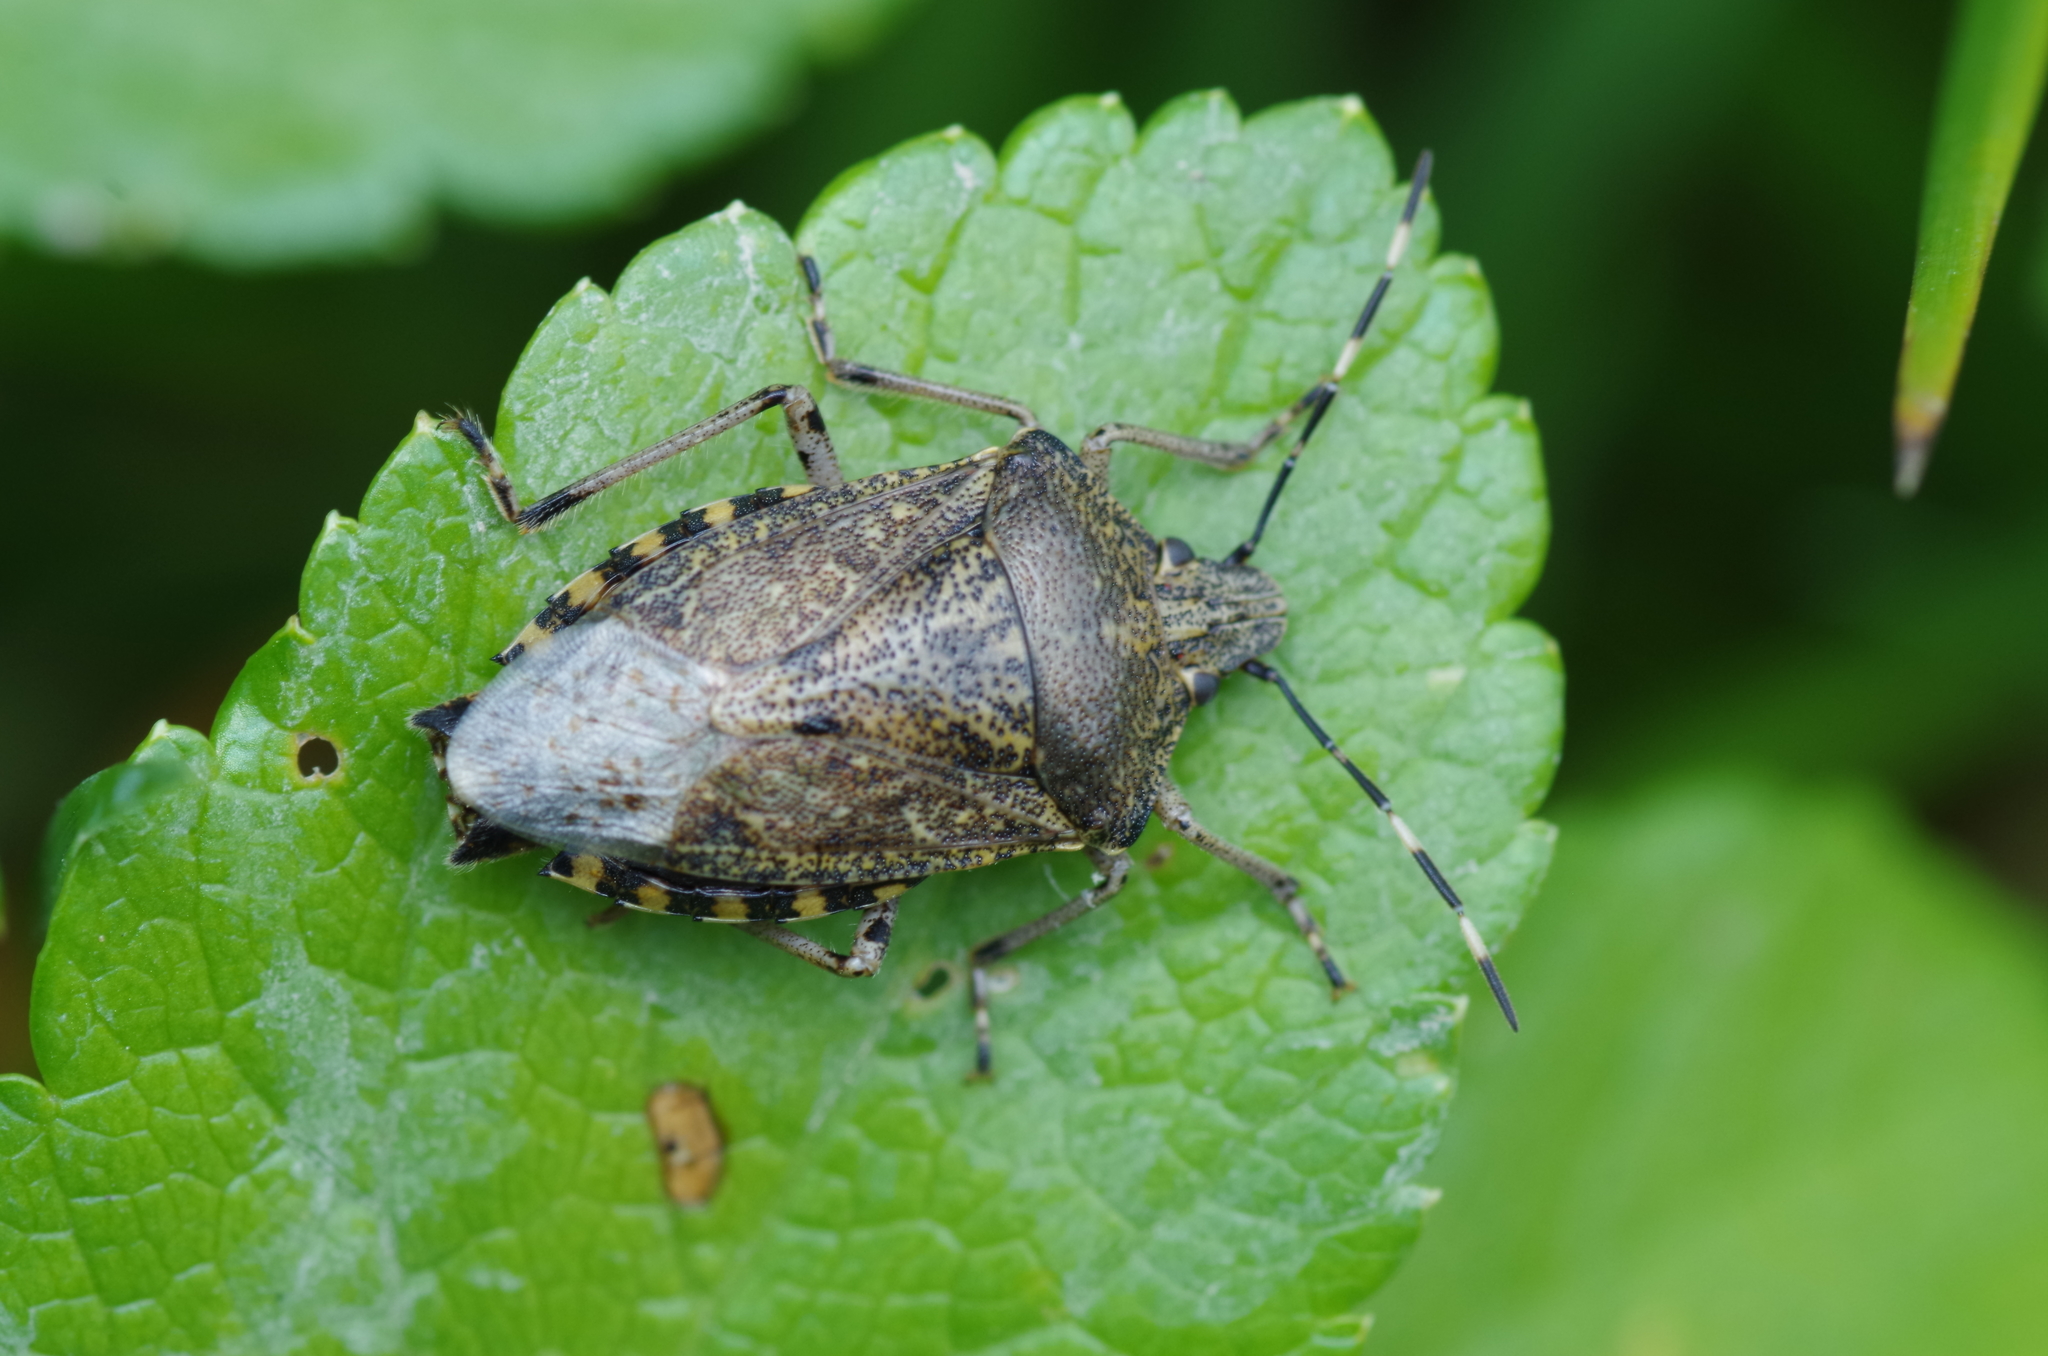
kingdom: Animalia
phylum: Arthropoda
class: Insecta
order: Hemiptera
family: Pentatomidae
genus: Rhaphigaster
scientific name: Rhaphigaster nebulosa
